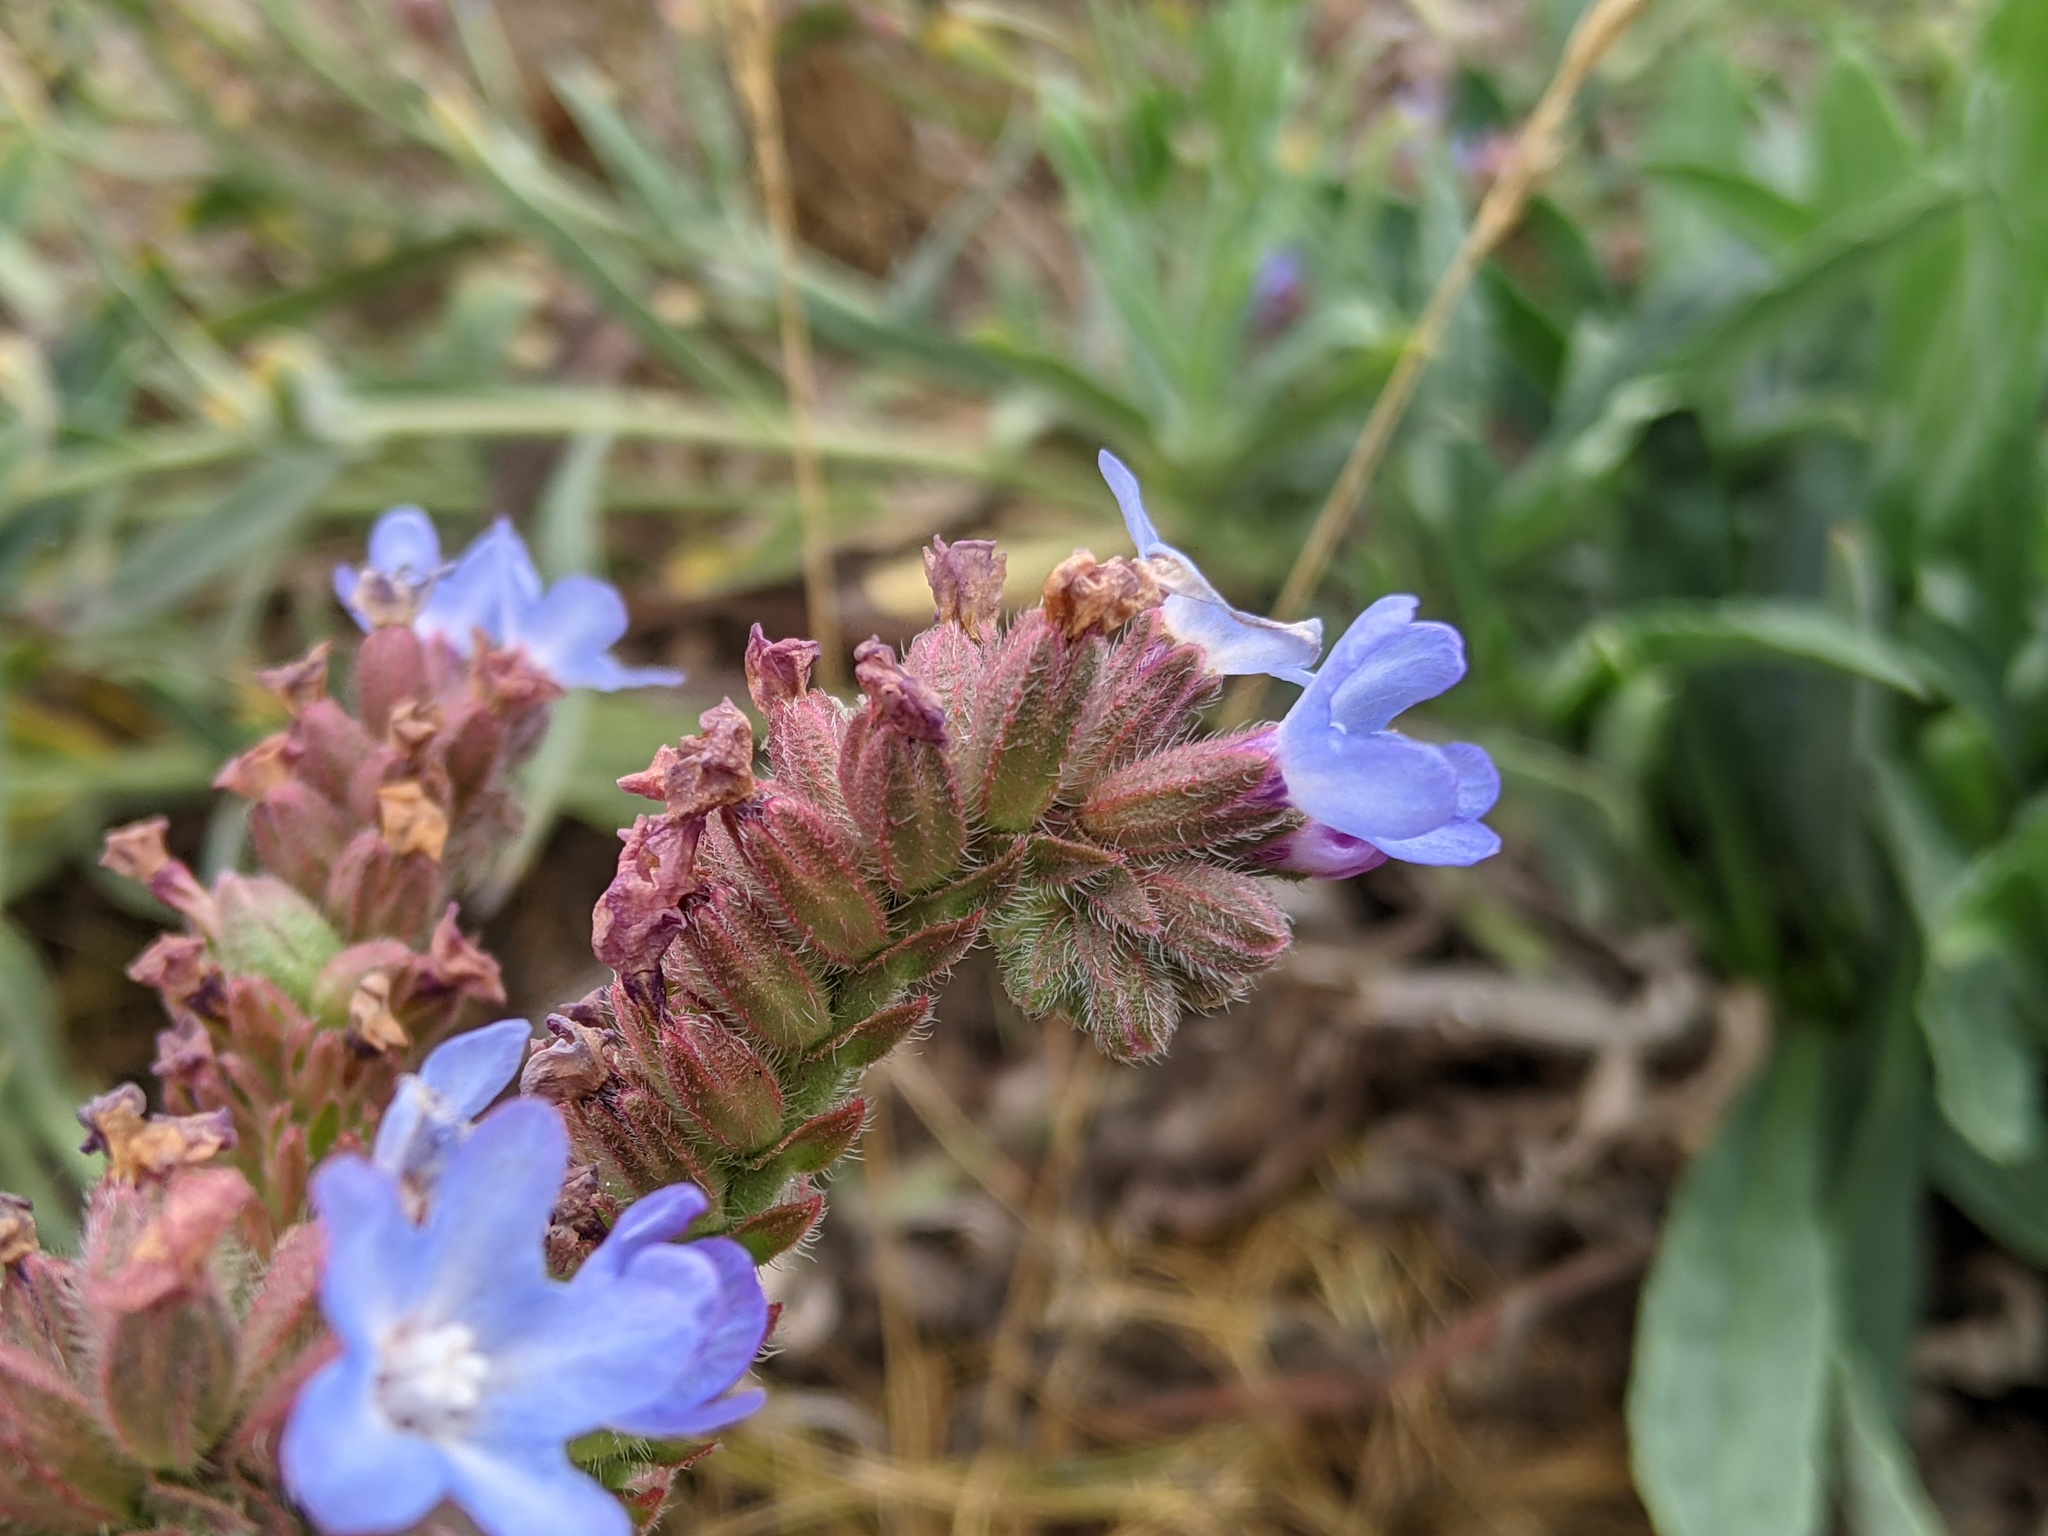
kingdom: Plantae
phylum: Tracheophyta
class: Magnoliopsida
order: Boraginales
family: Boraginaceae
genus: Anchusa
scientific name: Anchusa officinalis
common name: Alkanet
